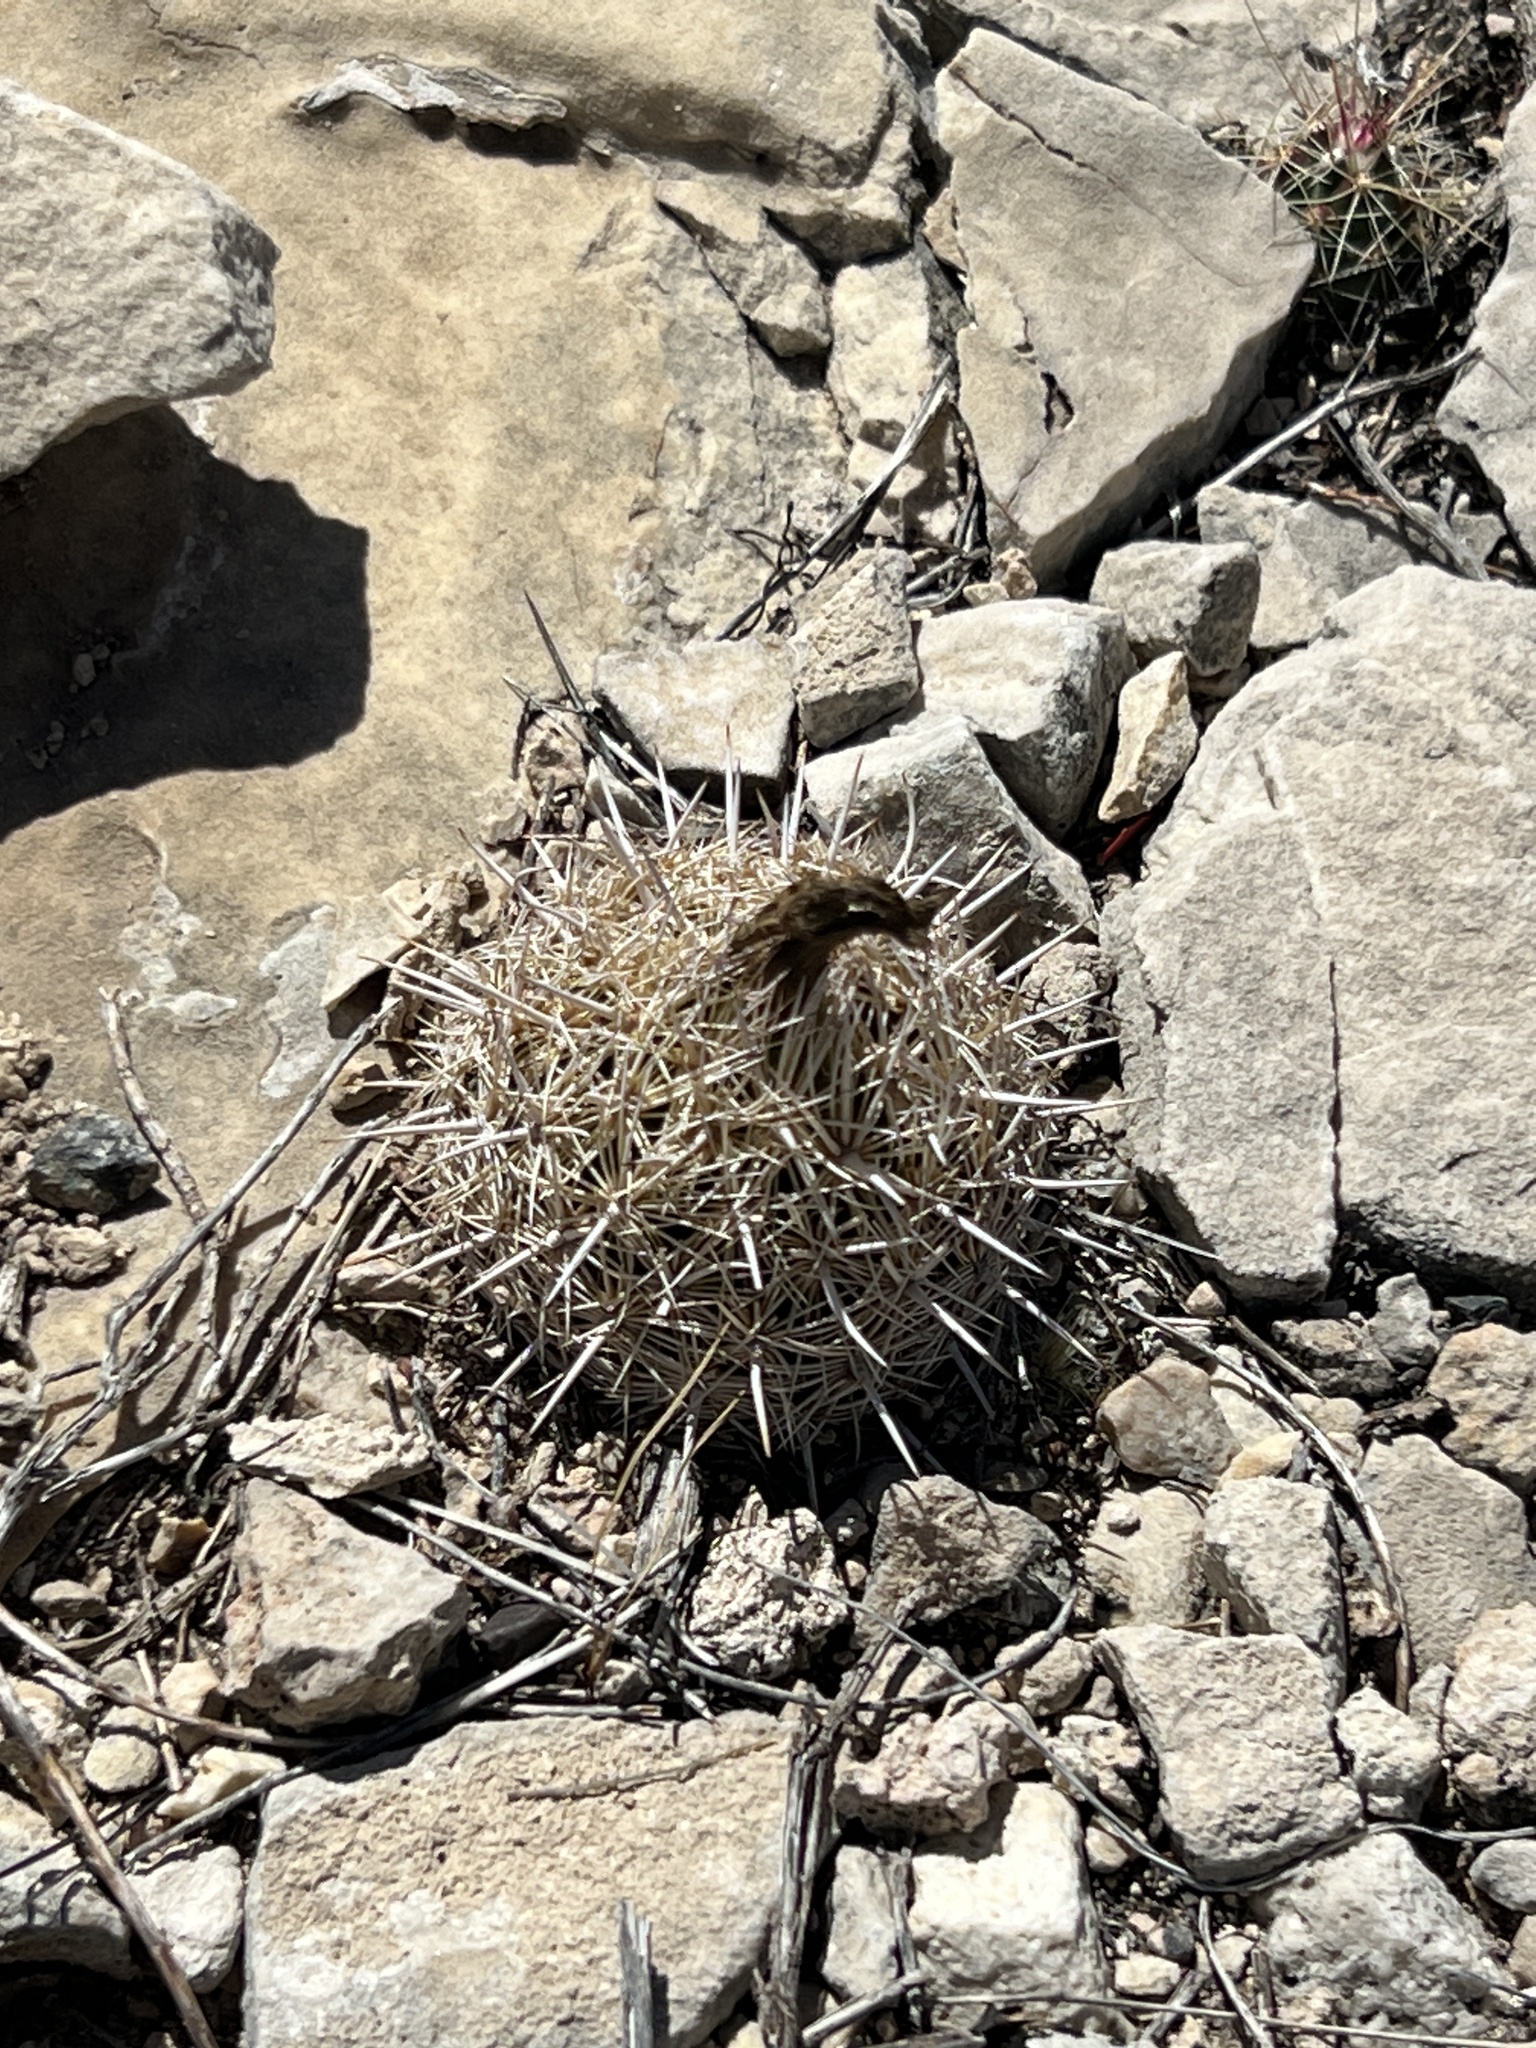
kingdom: Plantae
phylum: Tracheophyta
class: Magnoliopsida
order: Caryophyllales
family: Cactaceae
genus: Coryphantha
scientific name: Coryphantha echinus
